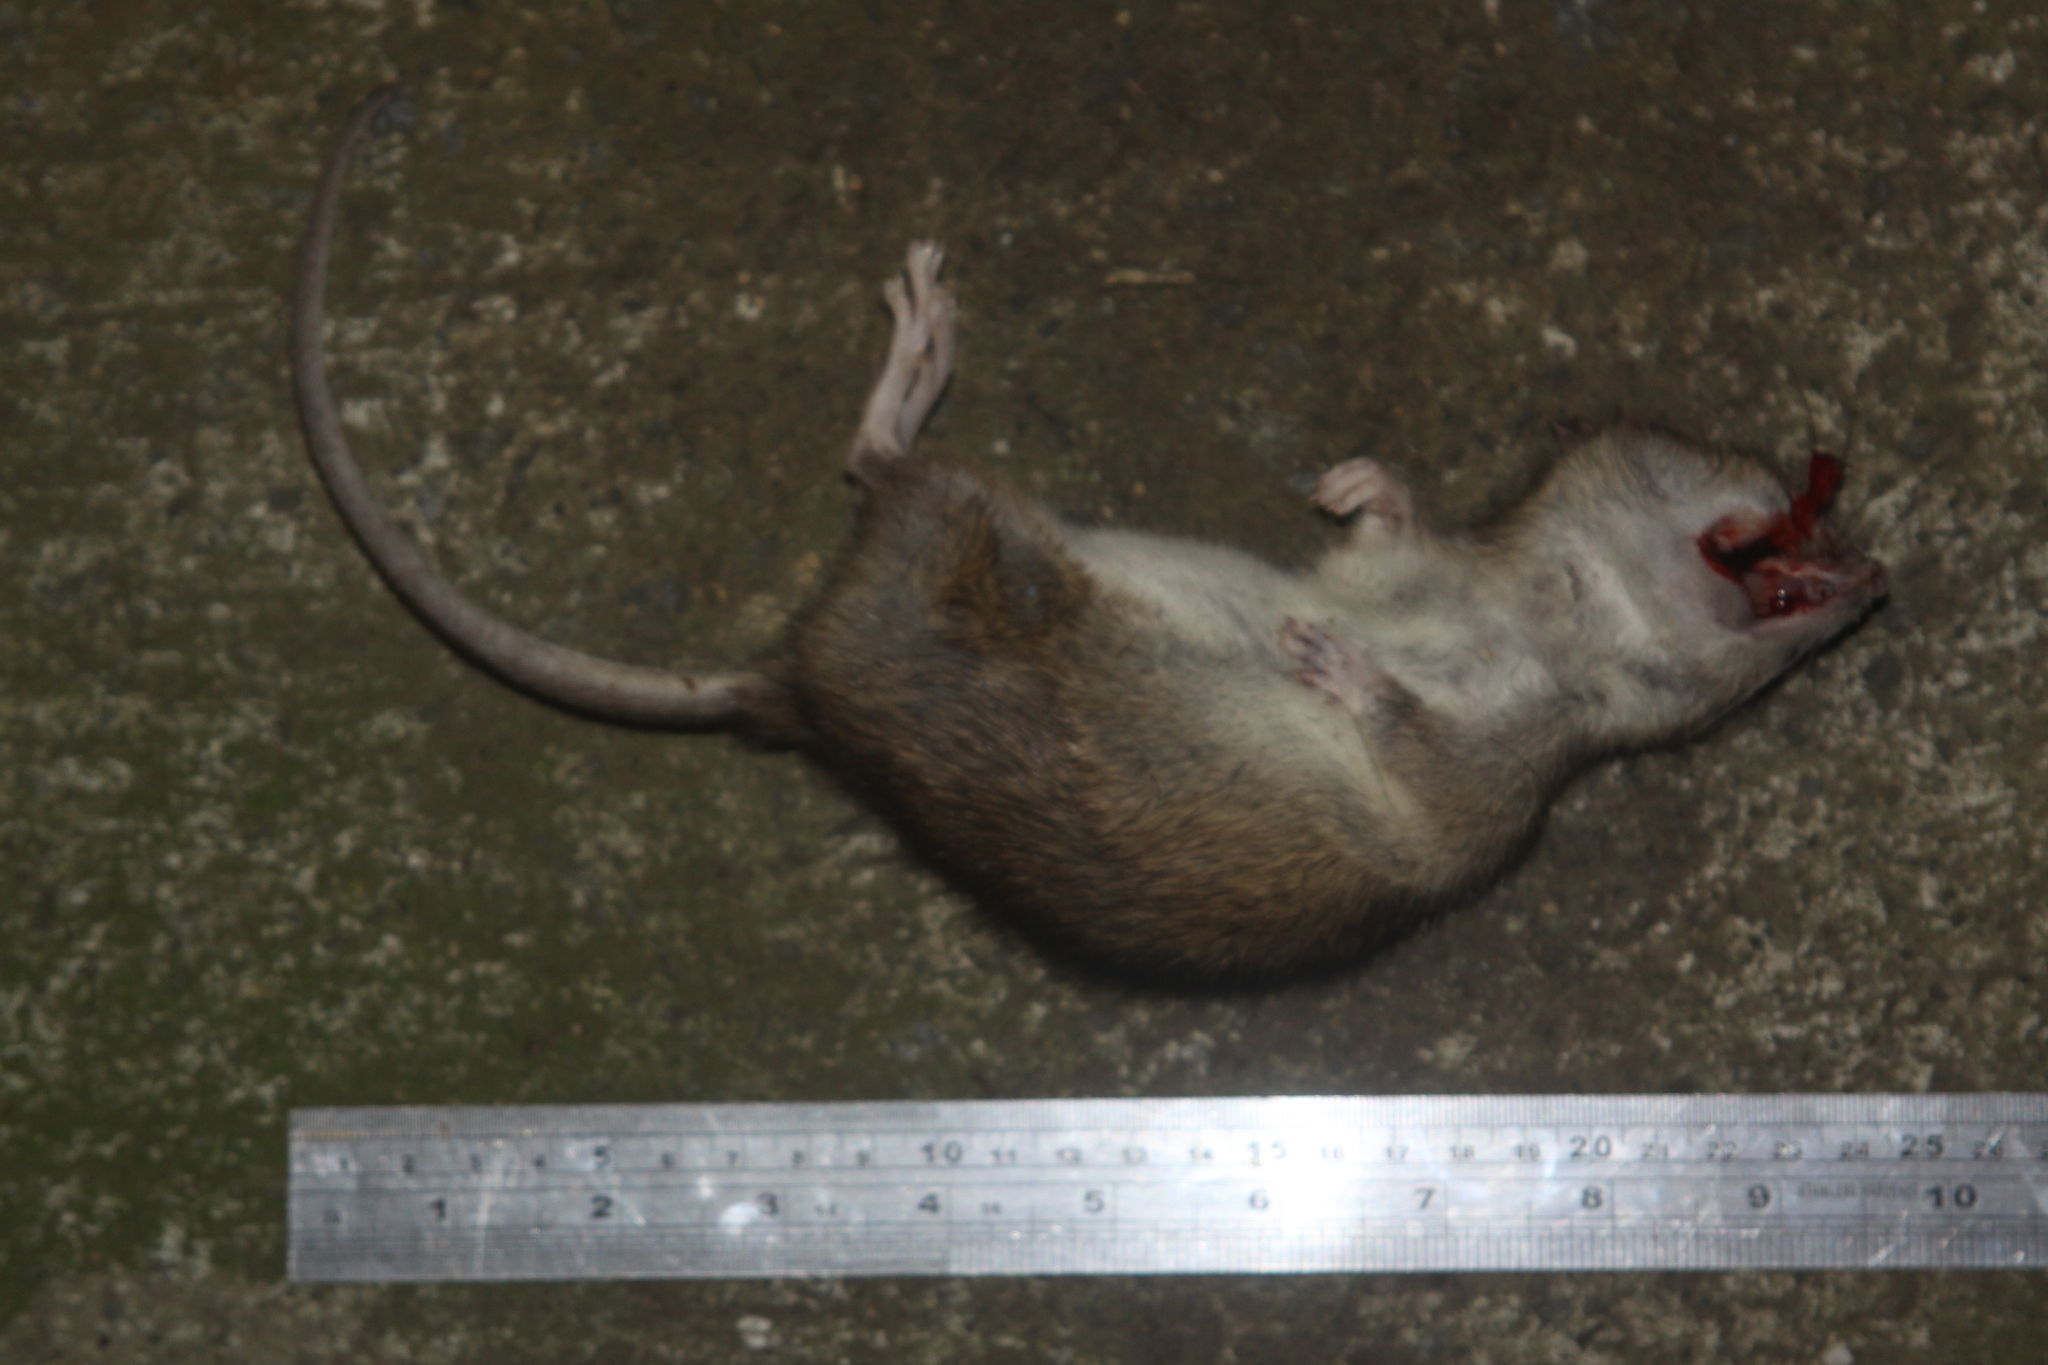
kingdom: Animalia
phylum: Chordata
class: Mammalia
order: Rodentia
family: Muridae
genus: Rattus
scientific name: Rattus norvegicus
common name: Brown rat
